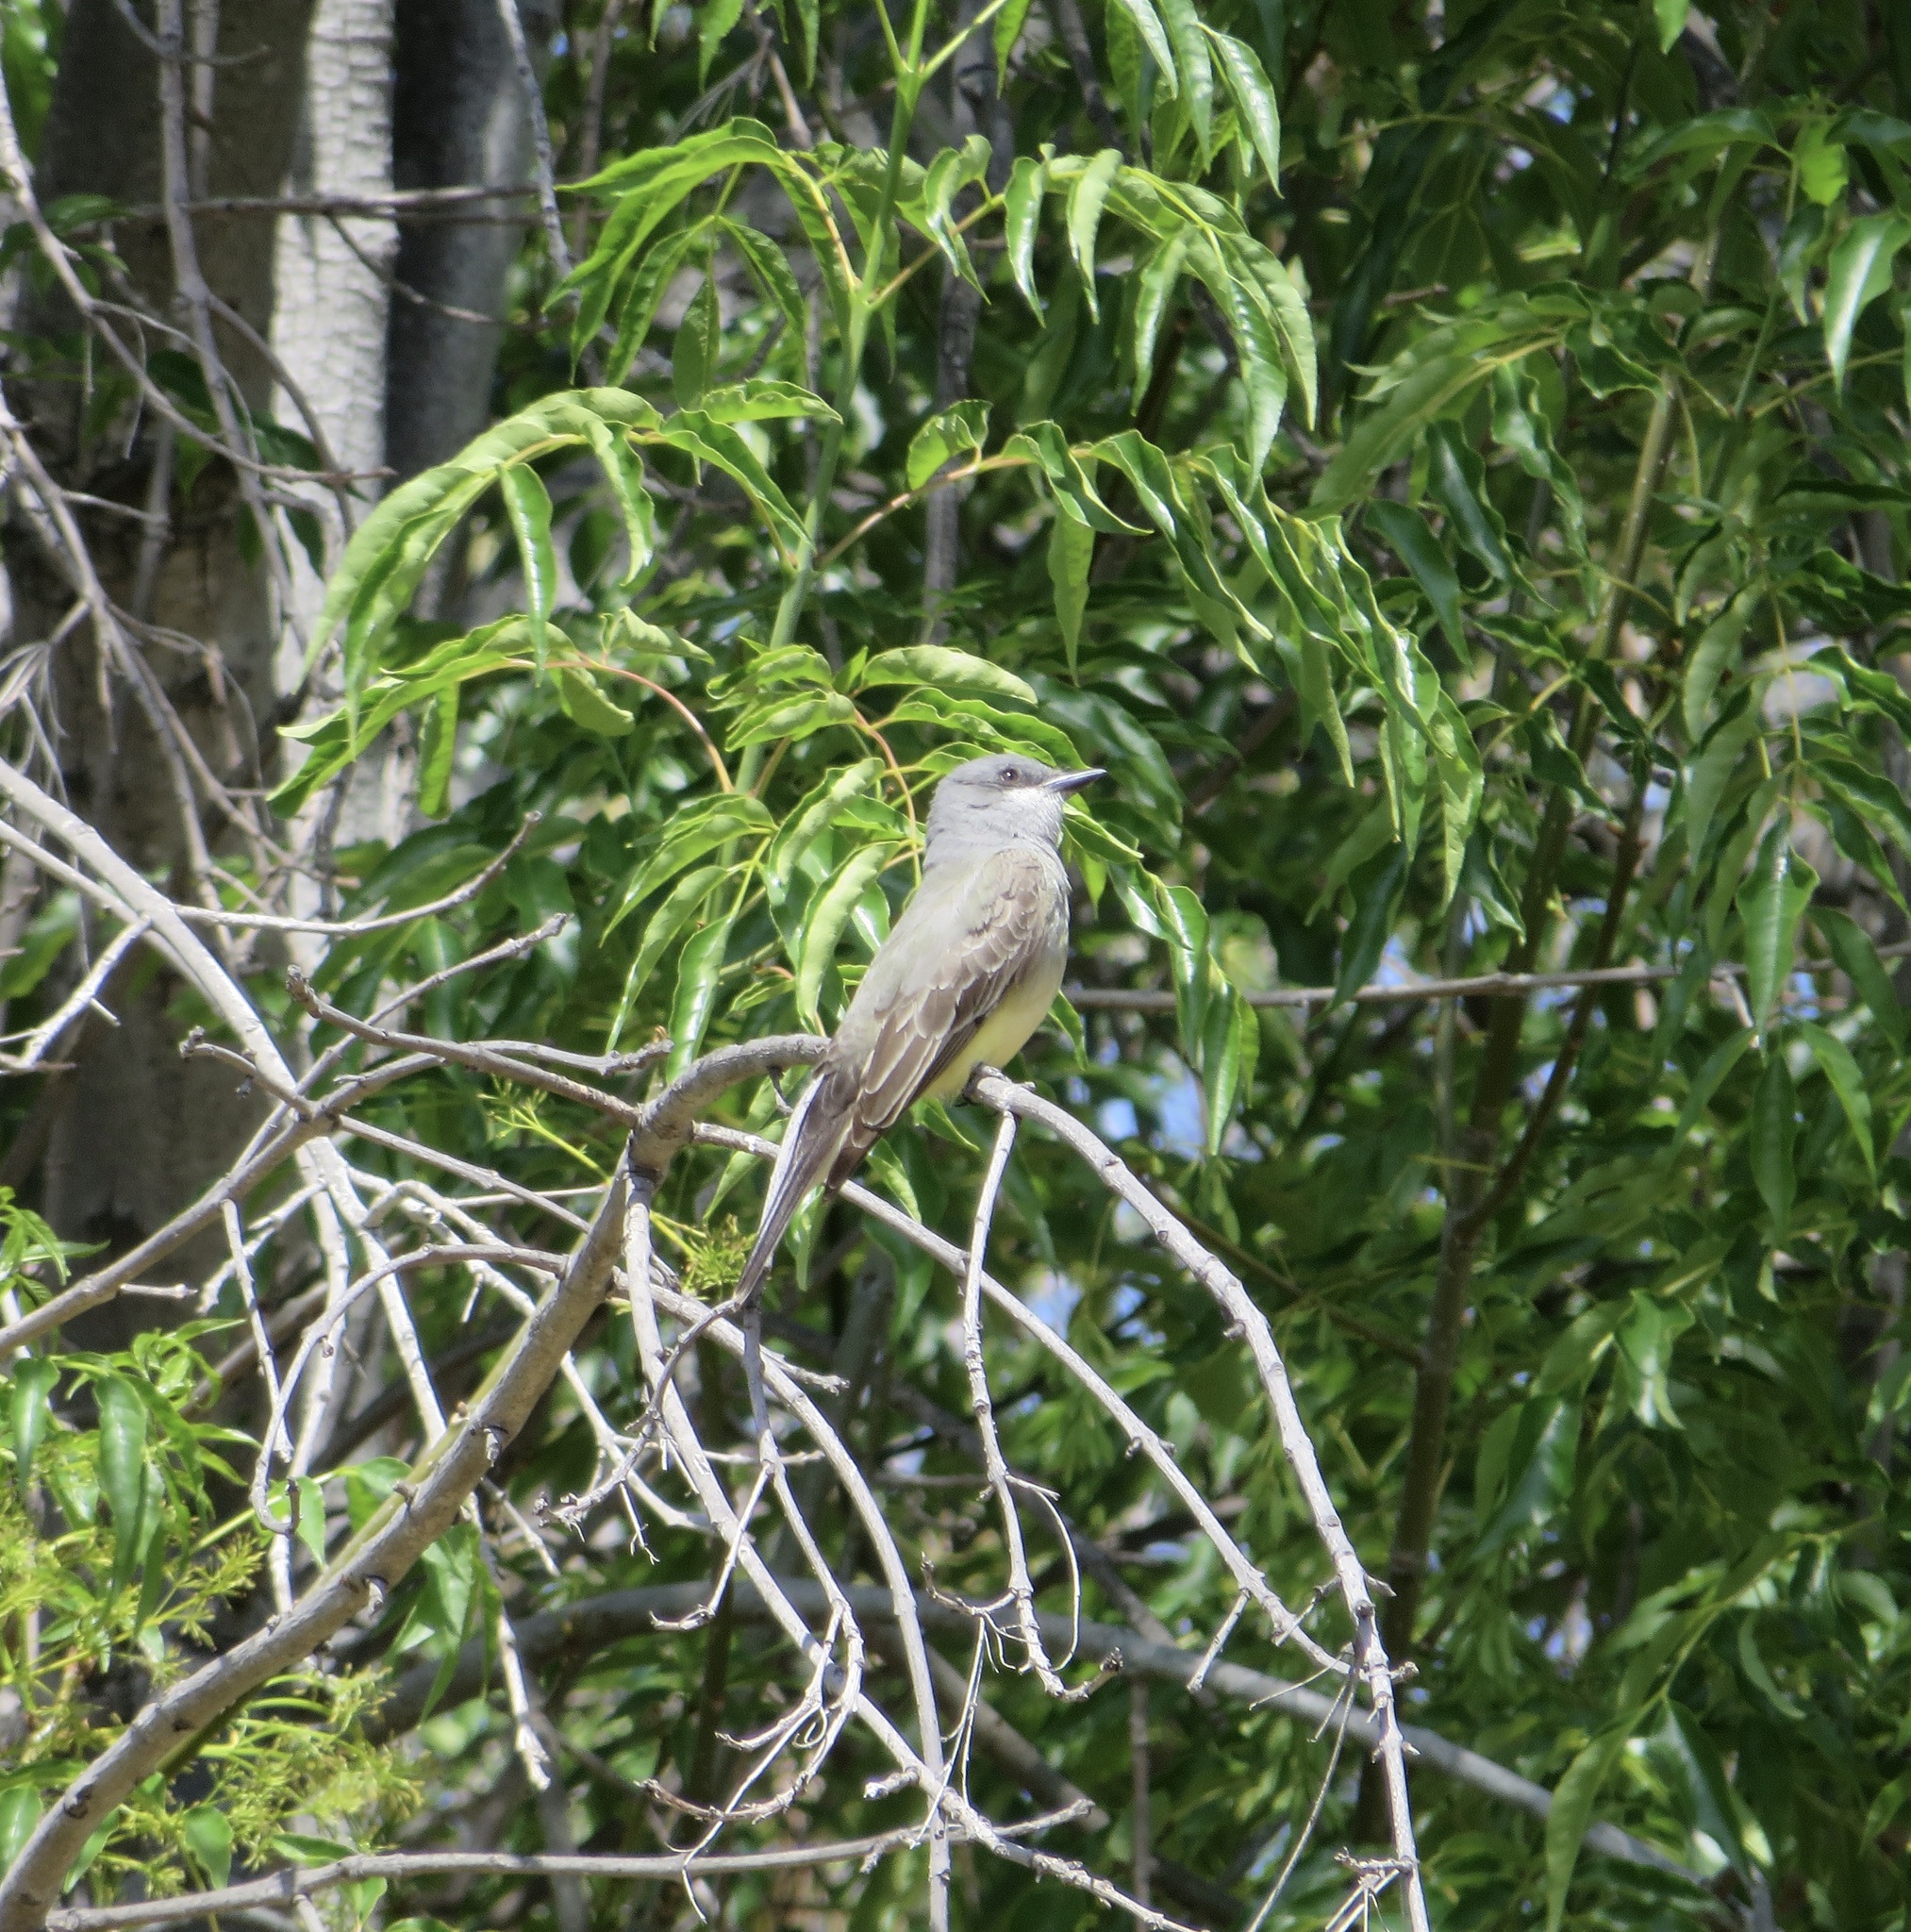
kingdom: Animalia
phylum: Chordata
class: Aves
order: Passeriformes
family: Tyrannidae
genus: Tyrannus
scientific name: Tyrannus vociferans
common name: Cassin's kingbird
